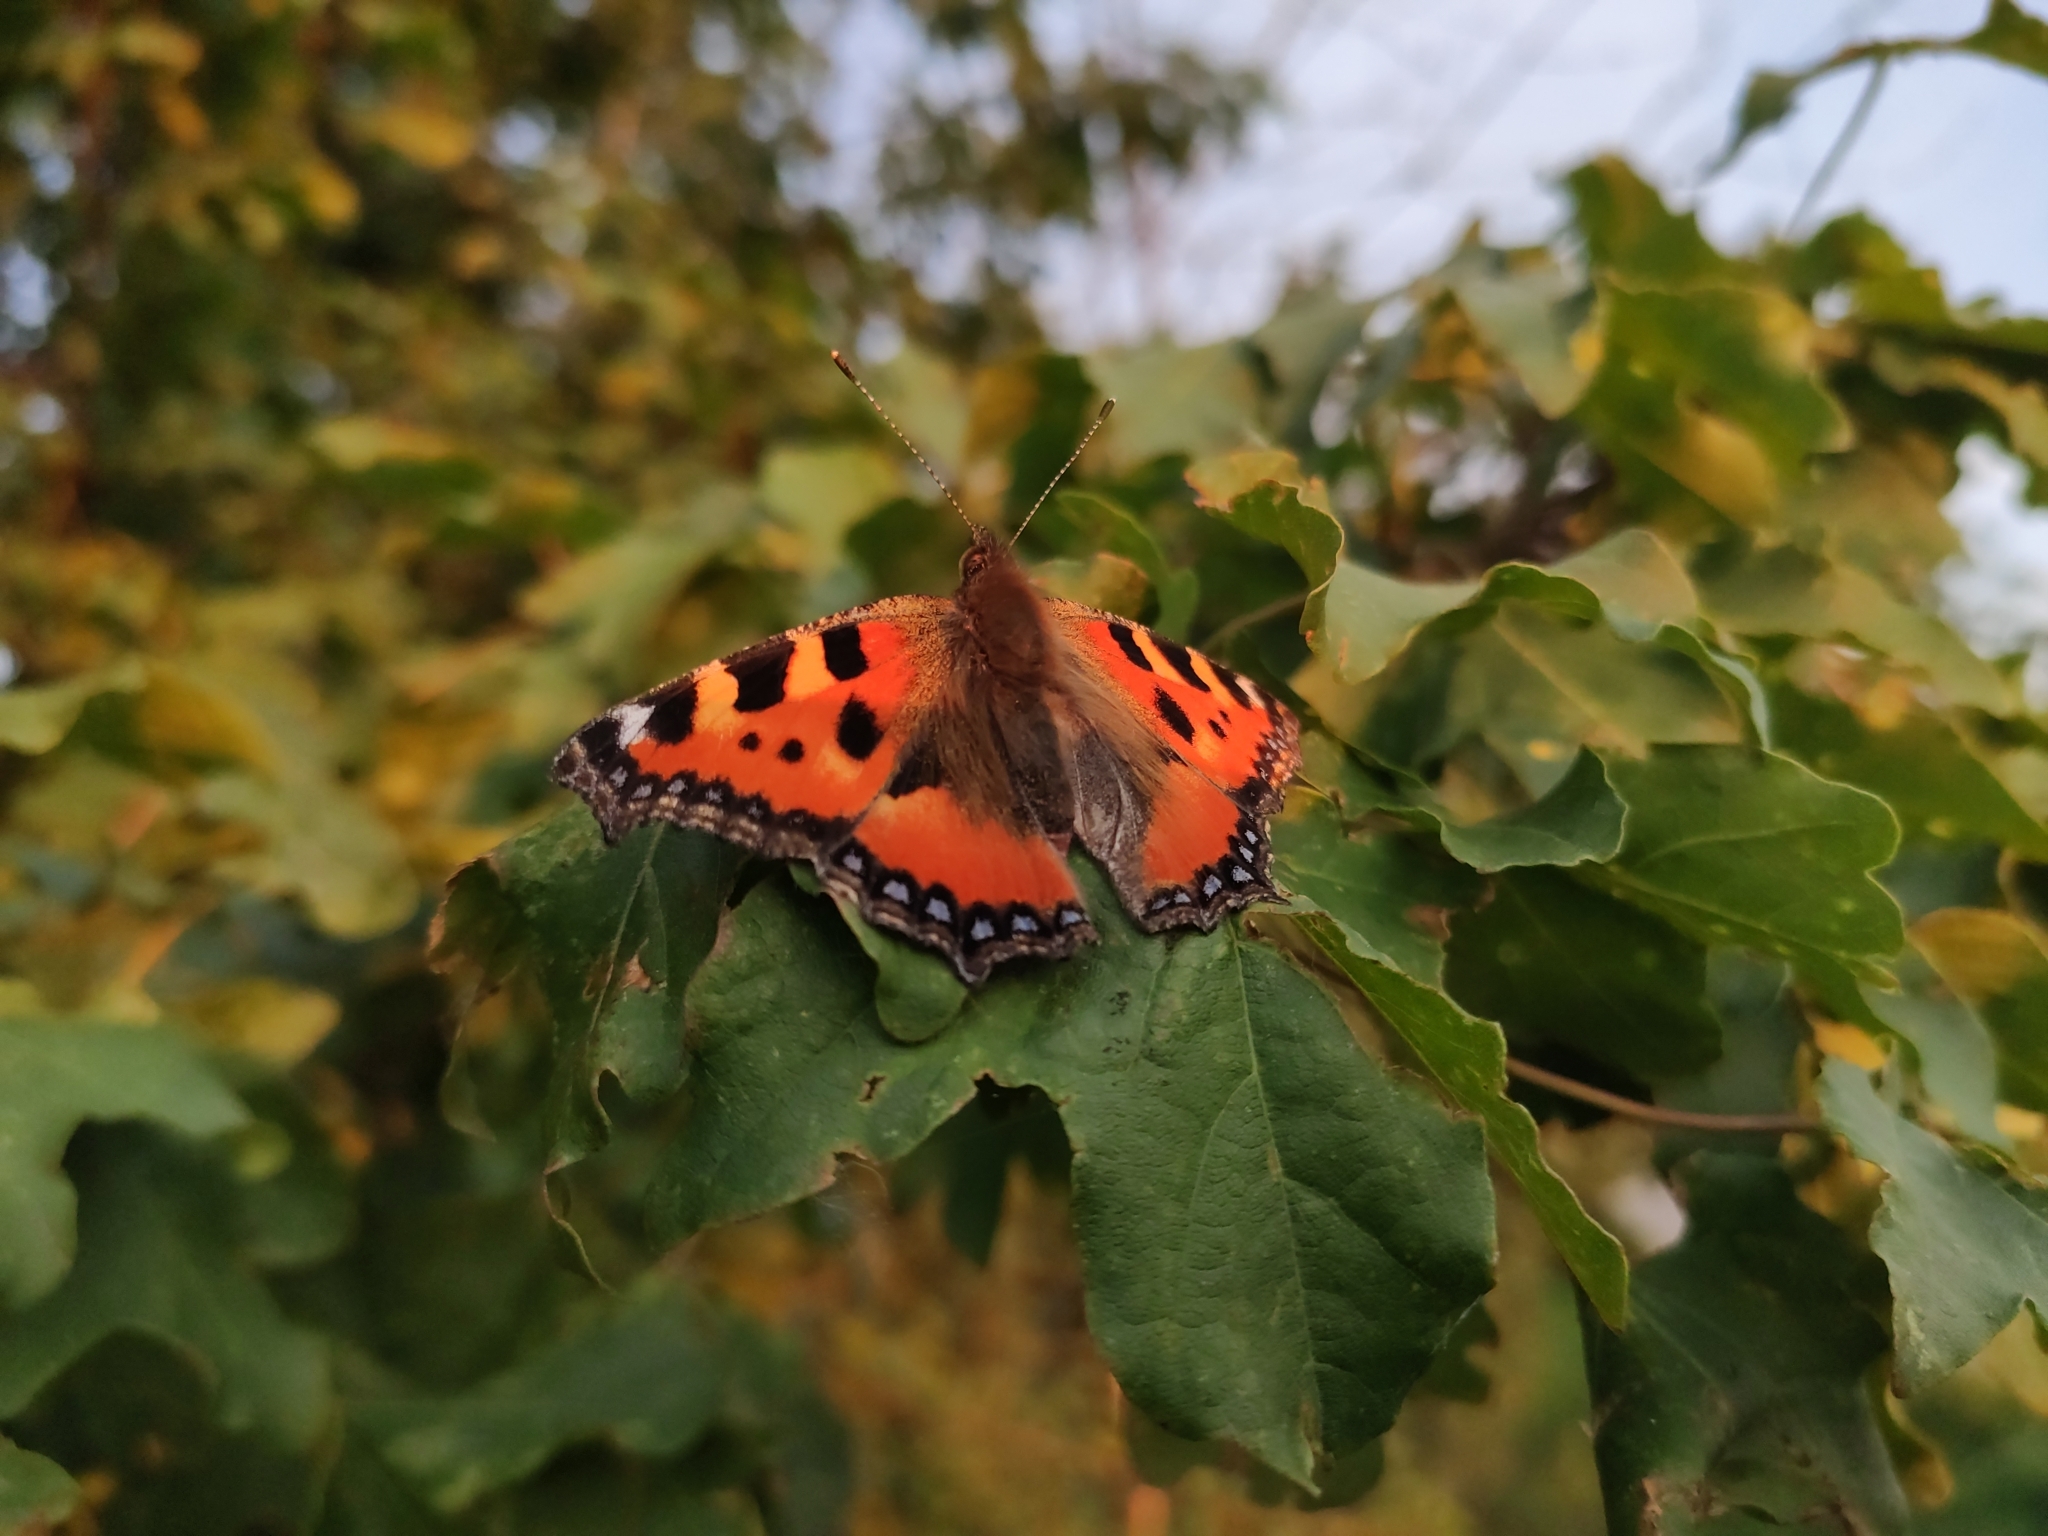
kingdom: Animalia
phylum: Arthropoda
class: Insecta
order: Lepidoptera
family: Nymphalidae
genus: Aglais
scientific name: Aglais urticae
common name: Small tortoiseshell
